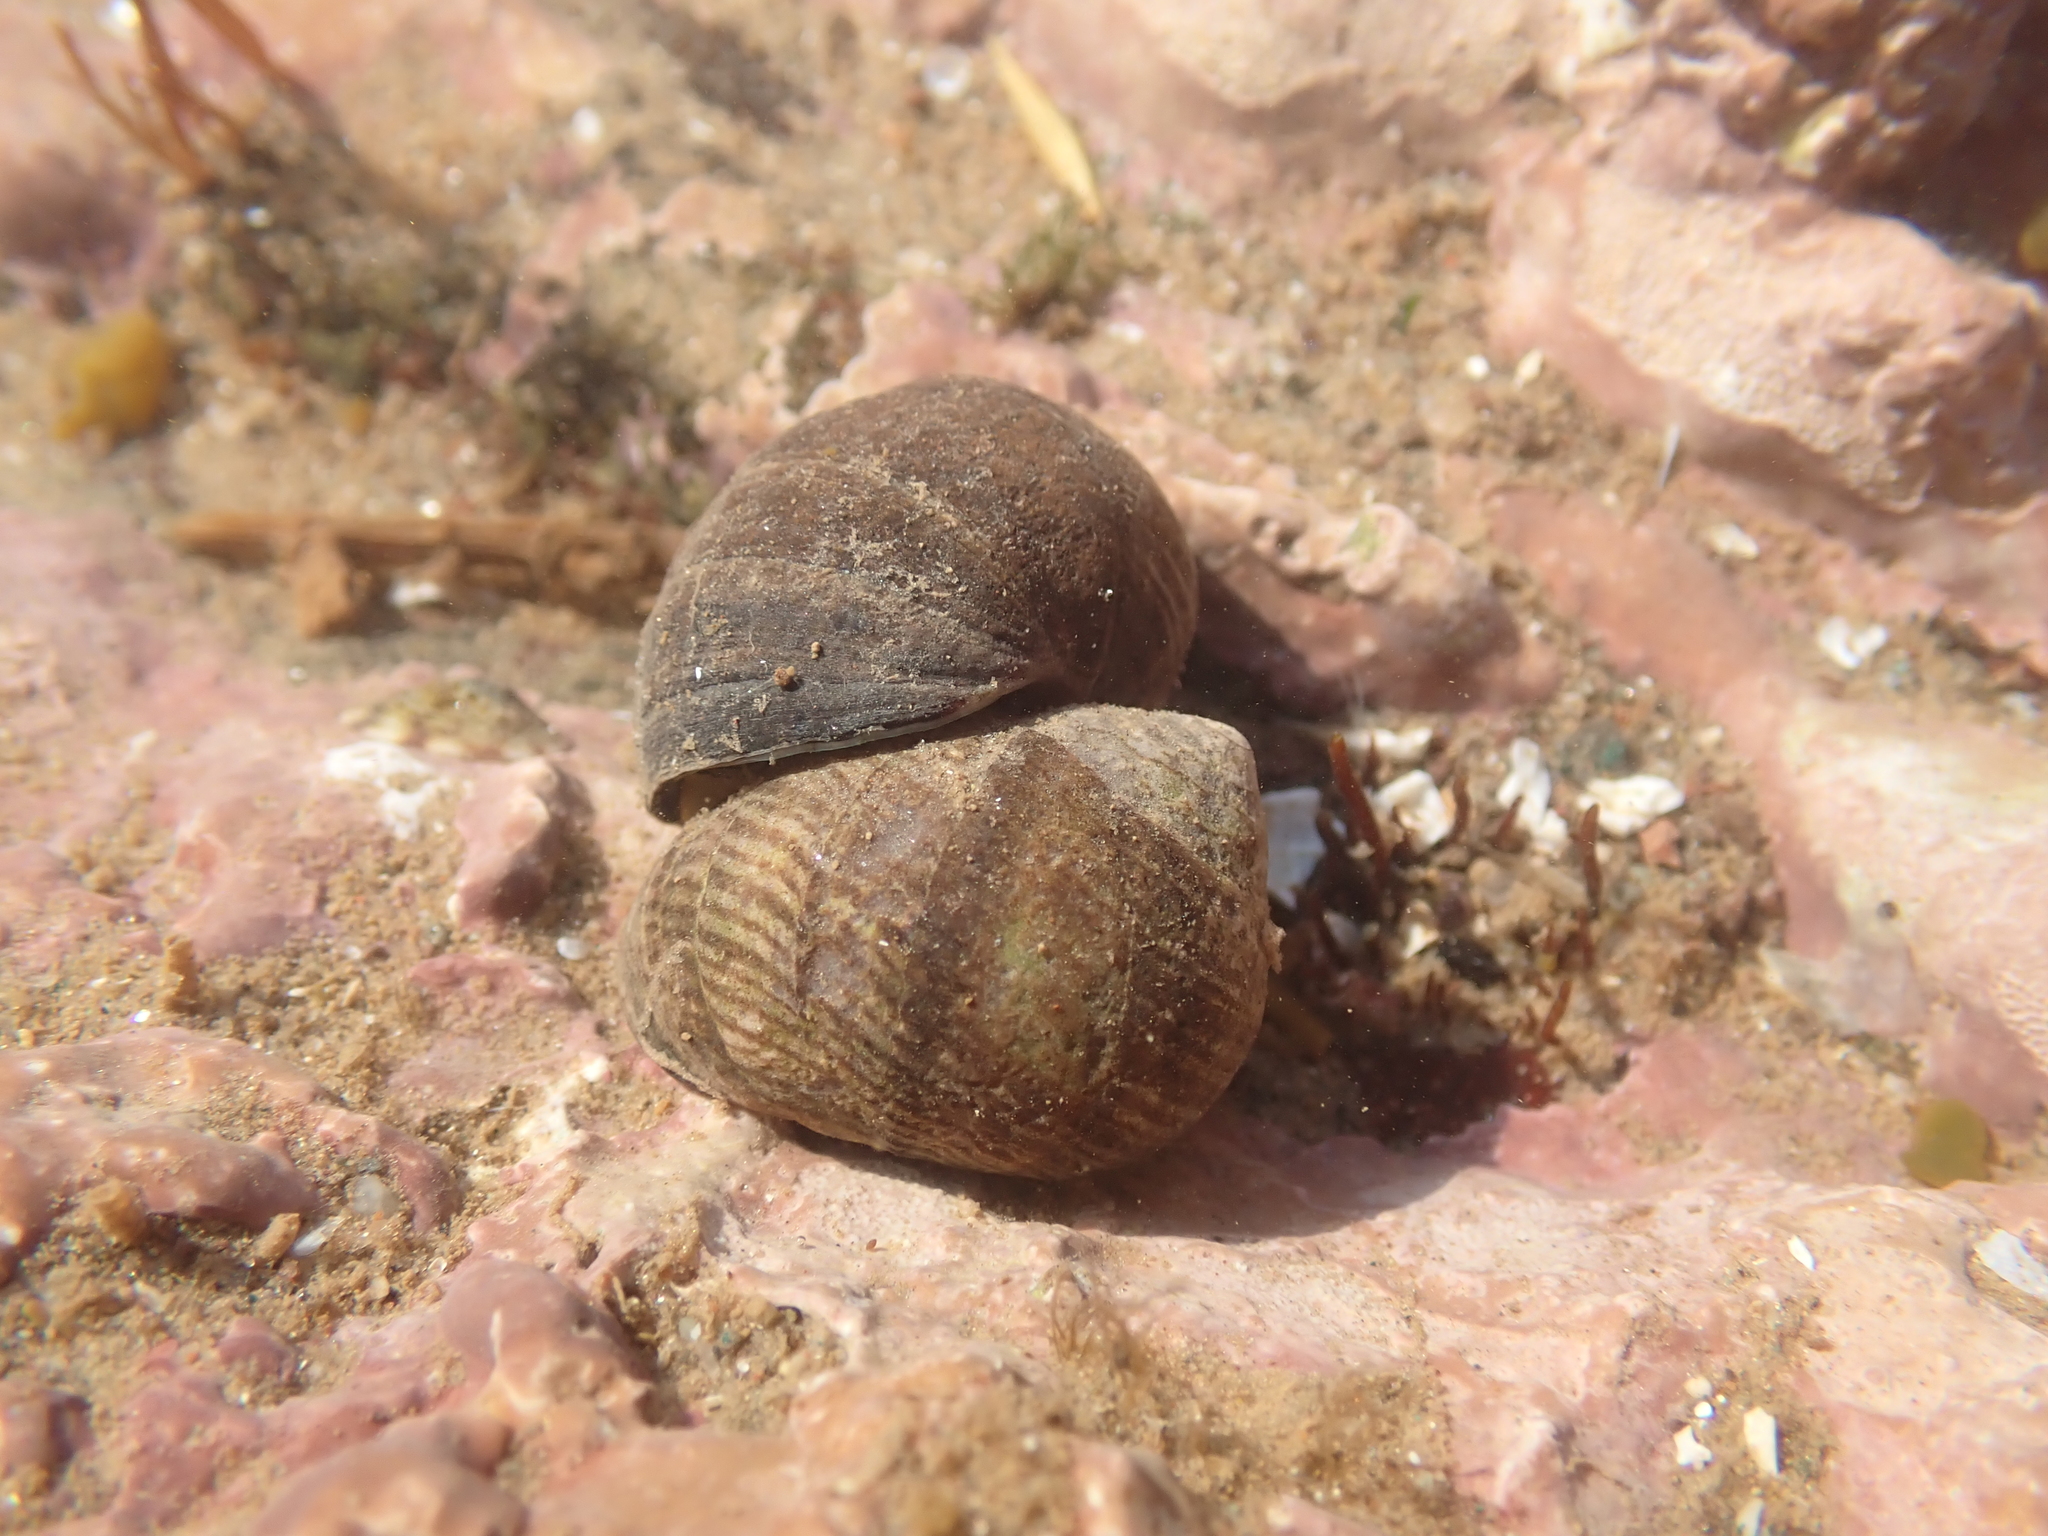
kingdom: Animalia
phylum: Mollusca
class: Gastropoda
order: Littorinimorpha
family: Littorinidae
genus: Littorina
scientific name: Littorina littorea
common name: Common periwinkle
